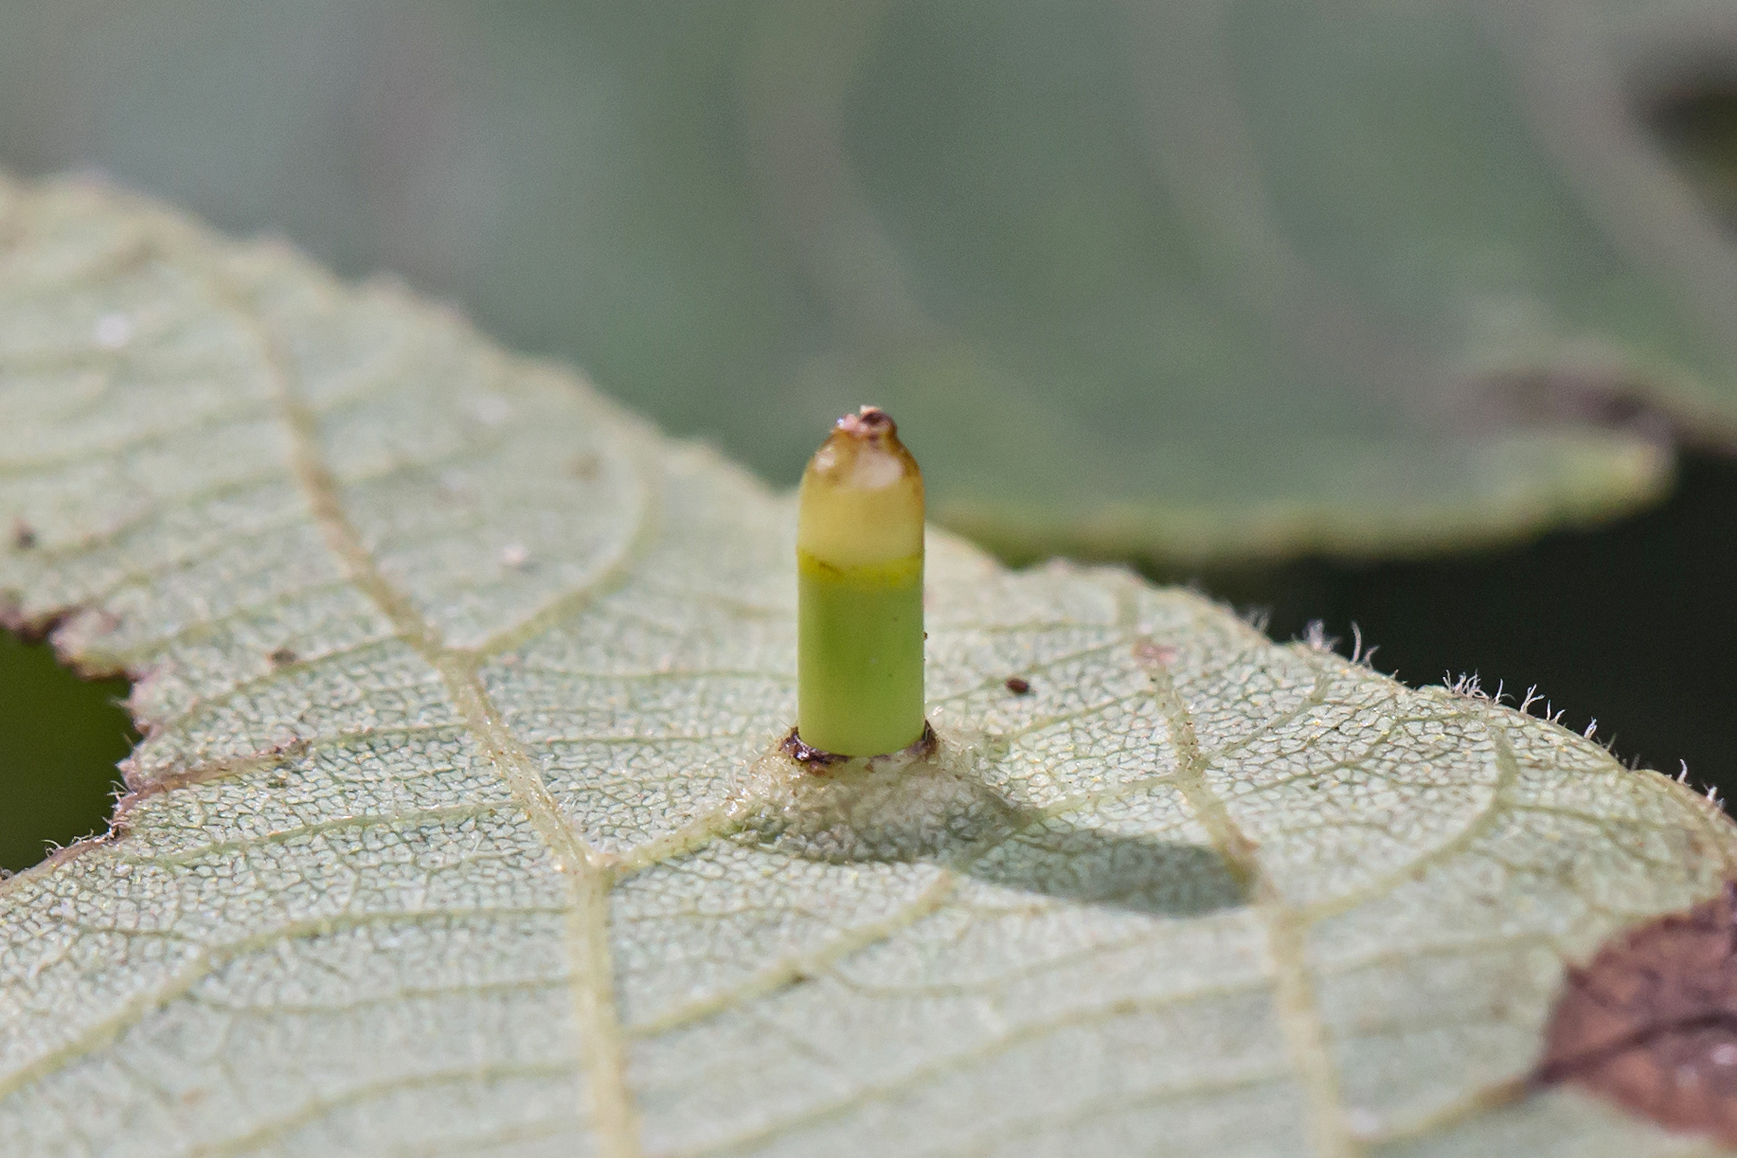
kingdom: Animalia
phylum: Arthropoda
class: Insecta
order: Diptera
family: Cecidomyiidae
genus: Caryomyia
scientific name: Caryomyia tubicola
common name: Hickory bullet gall midge
